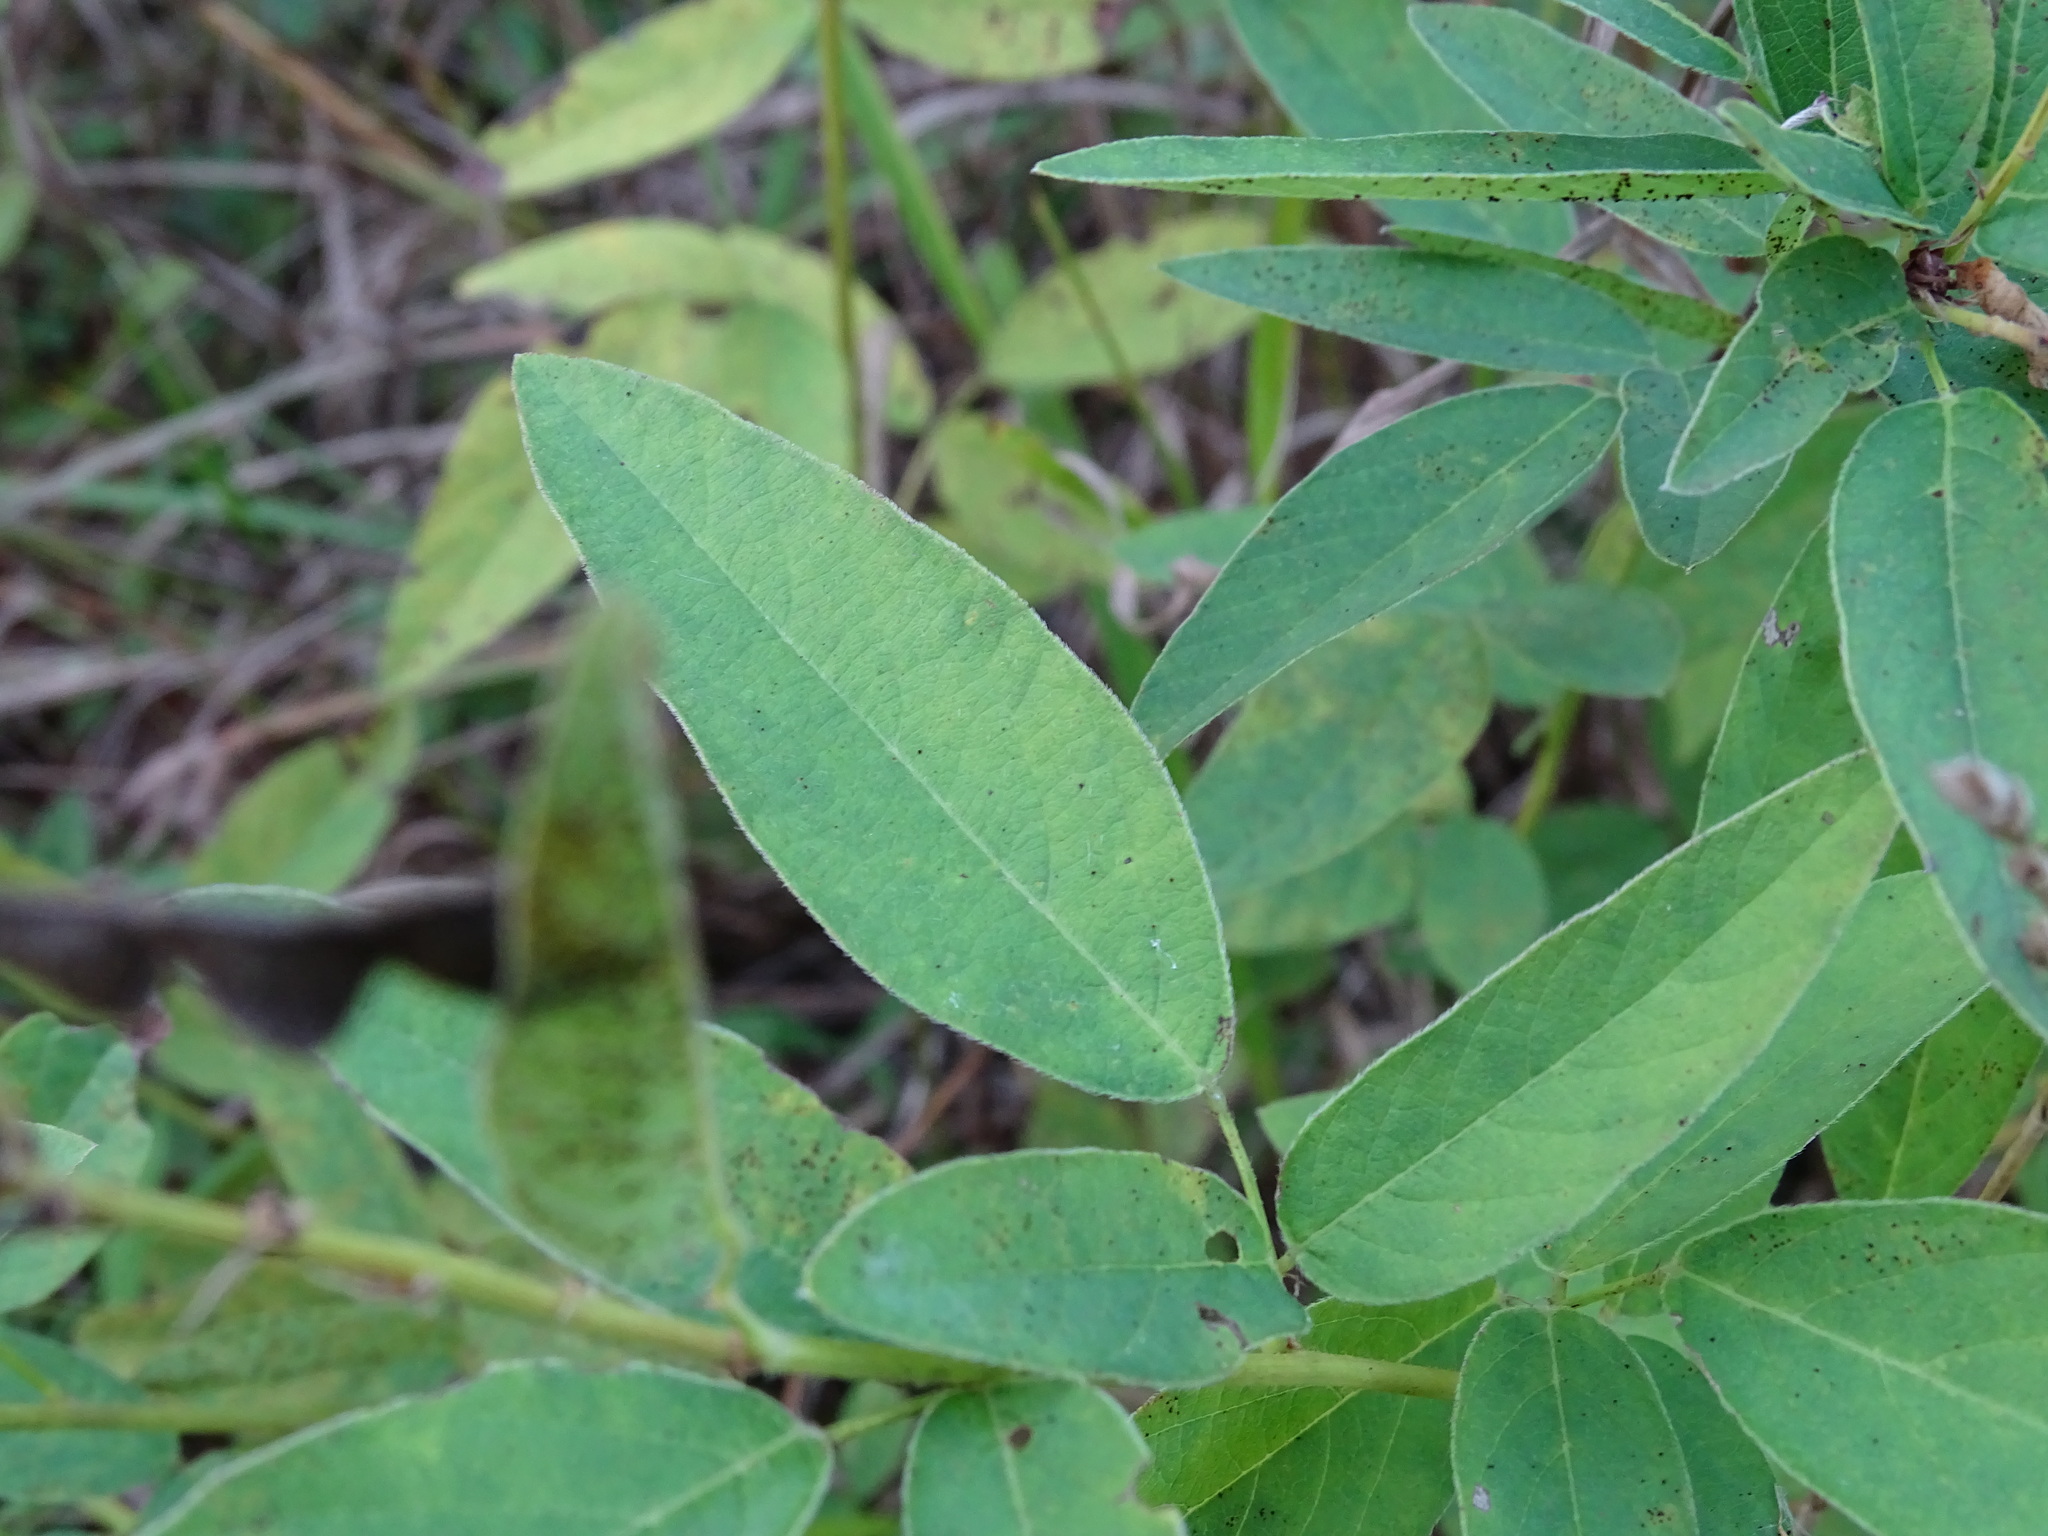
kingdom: Plantae
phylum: Tracheophyta
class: Magnoliopsida
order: Fabales
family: Fabaceae
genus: Desmodium
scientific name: Desmodium canadense
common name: Canada tick-trefoil
